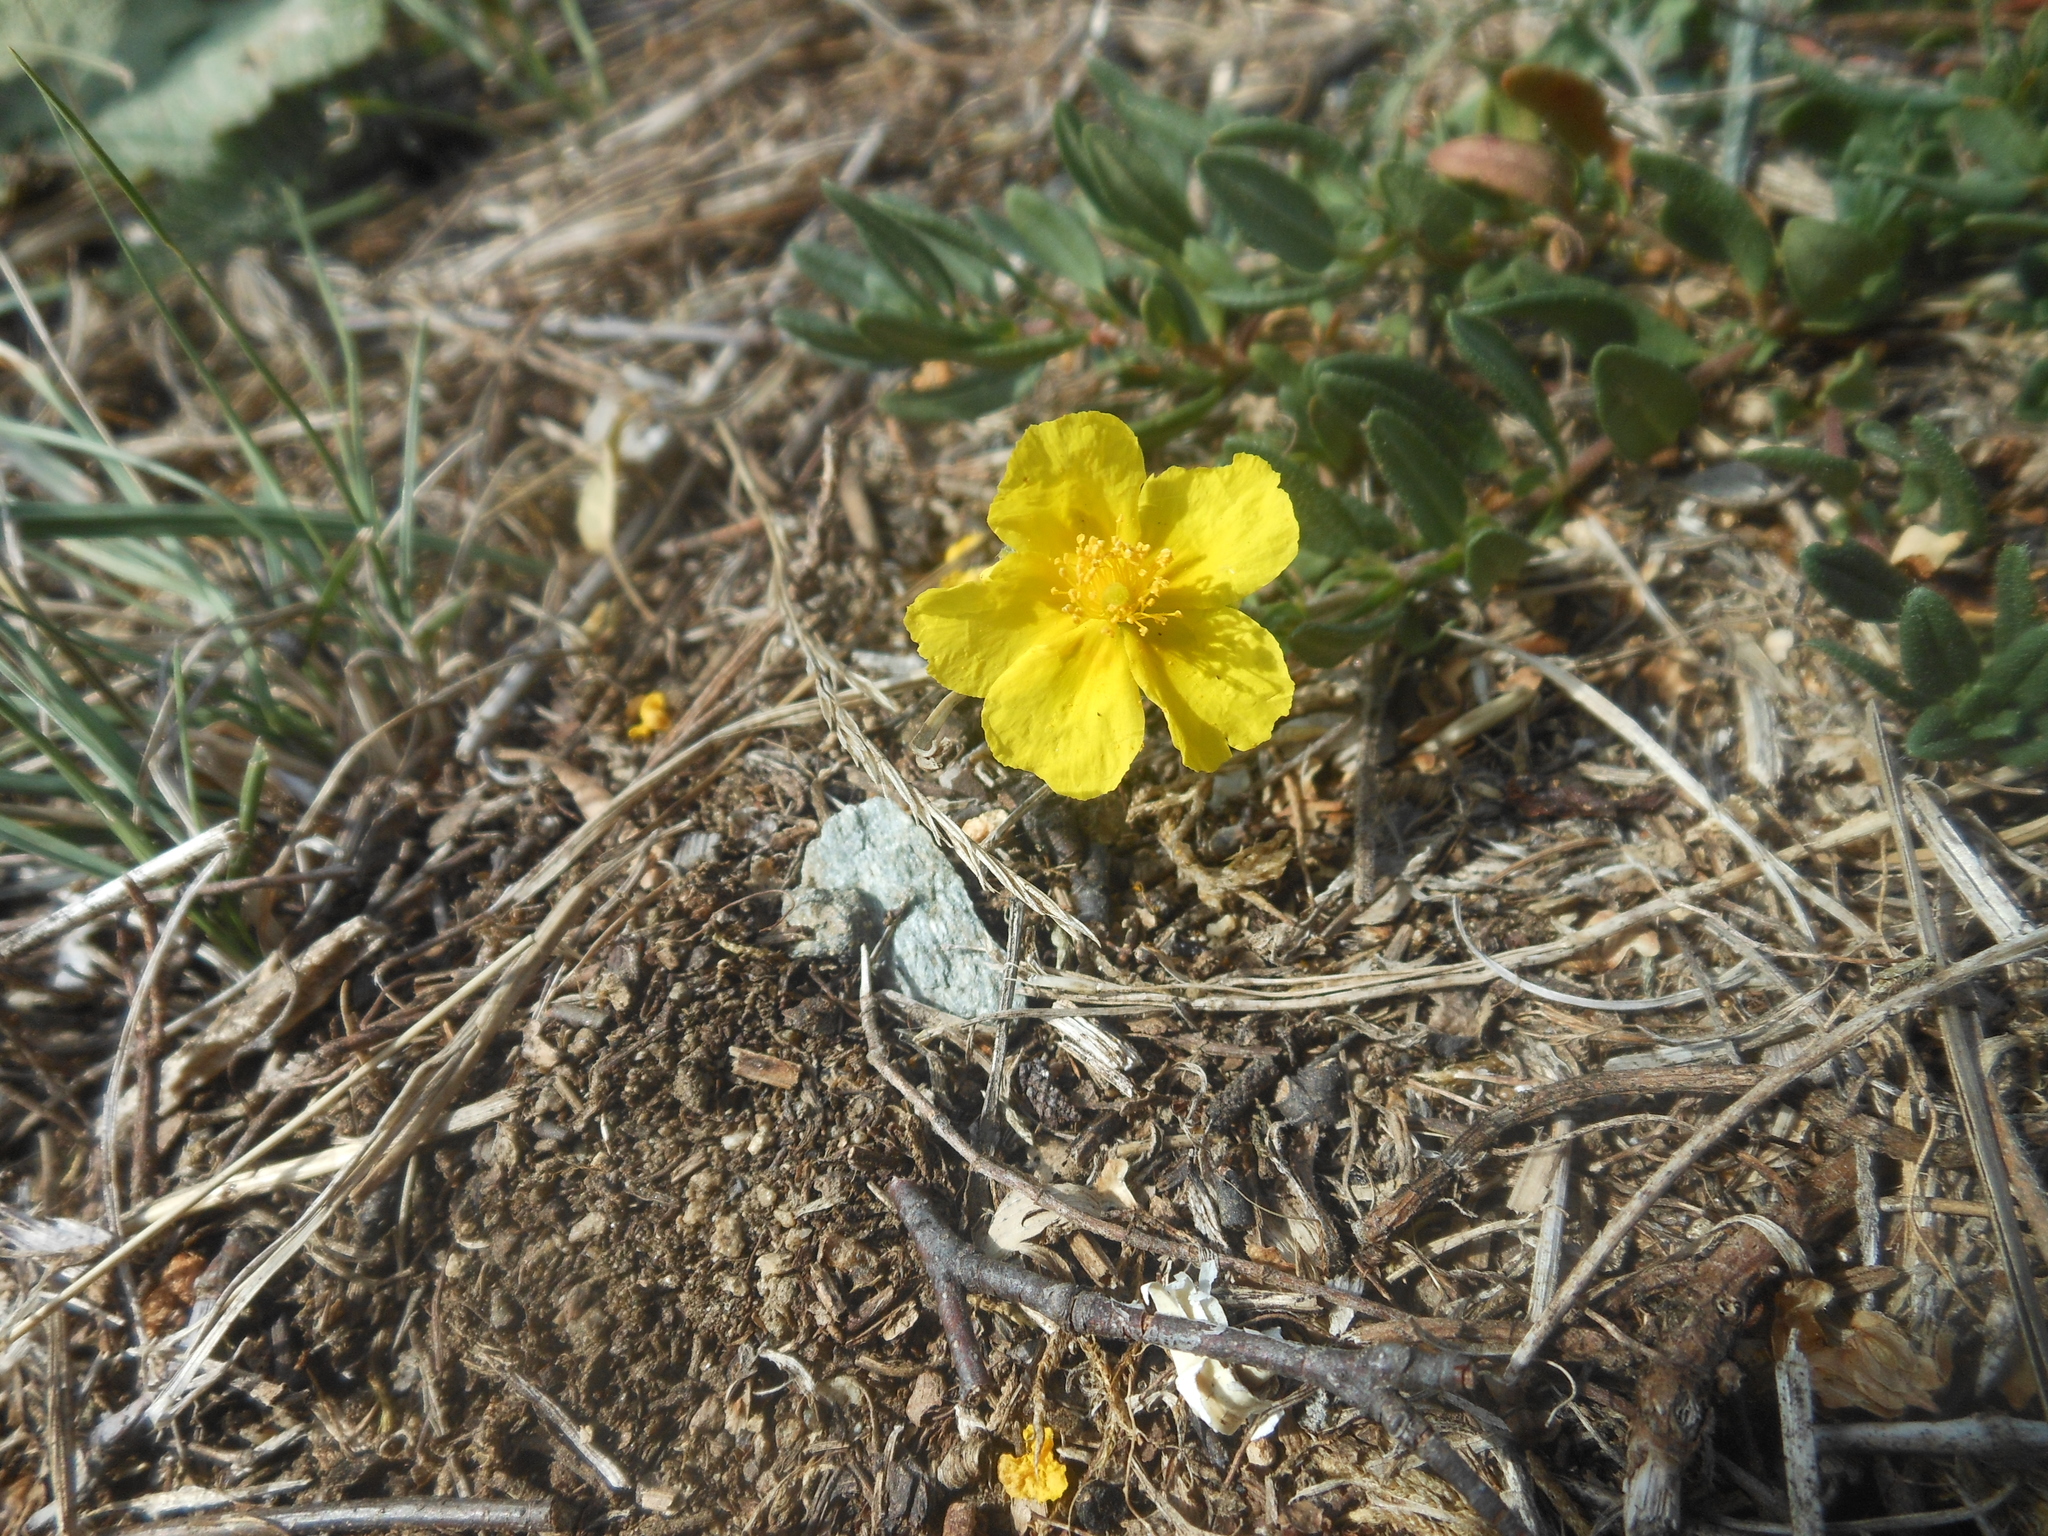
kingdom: Plantae
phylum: Tracheophyta
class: Magnoliopsida
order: Malvales
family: Cistaceae
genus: Helianthemum
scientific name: Helianthemum nummularium
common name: Common rock-rose
